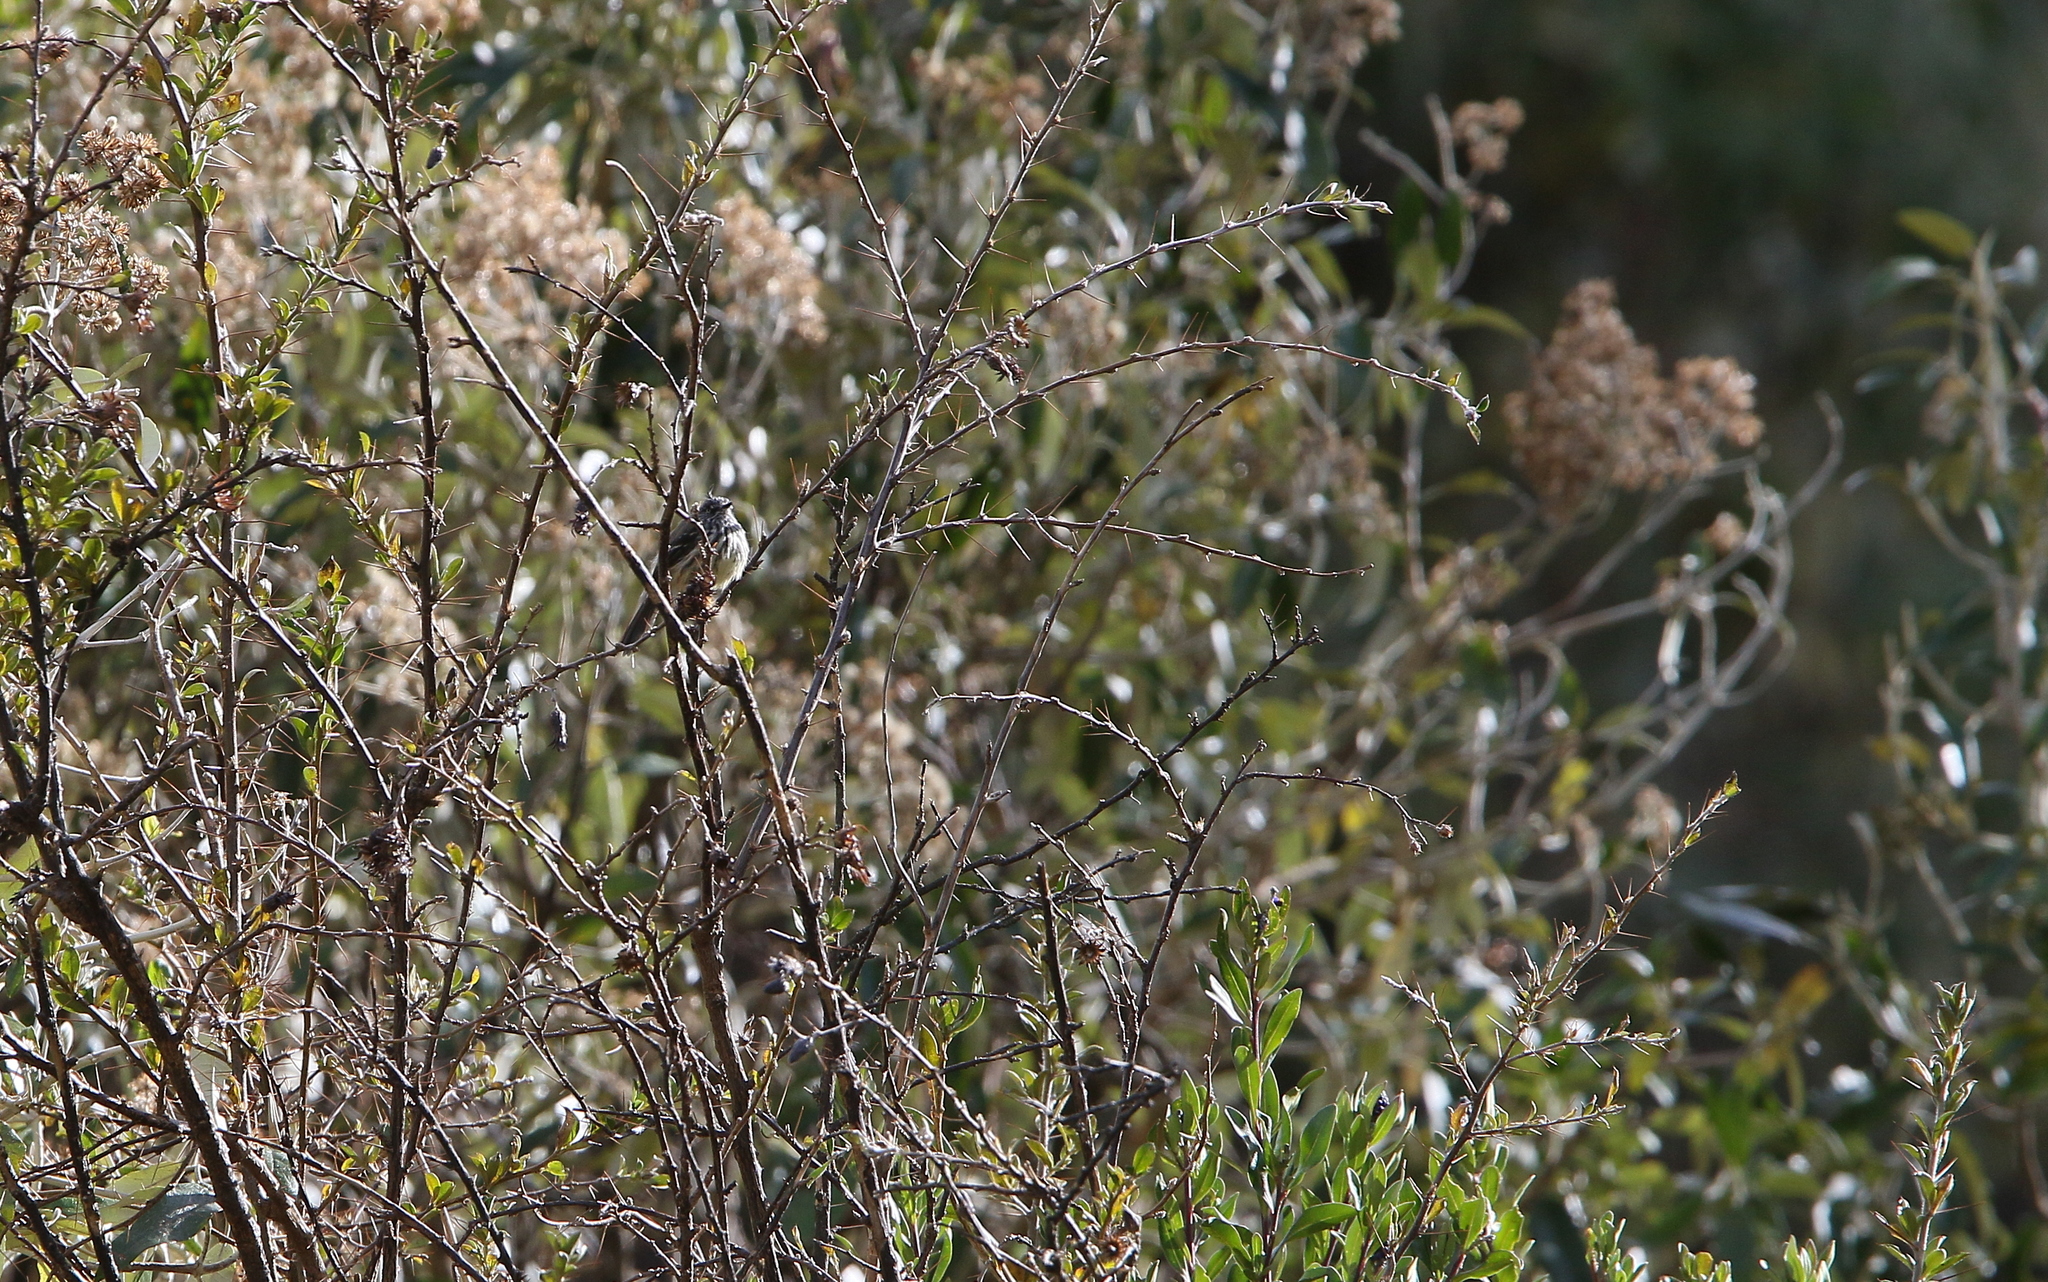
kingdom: Animalia
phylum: Chordata
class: Aves
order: Passeriformes
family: Tyrannidae
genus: Anairetes
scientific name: Anairetes parulus
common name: Tufted tit-tyrant
